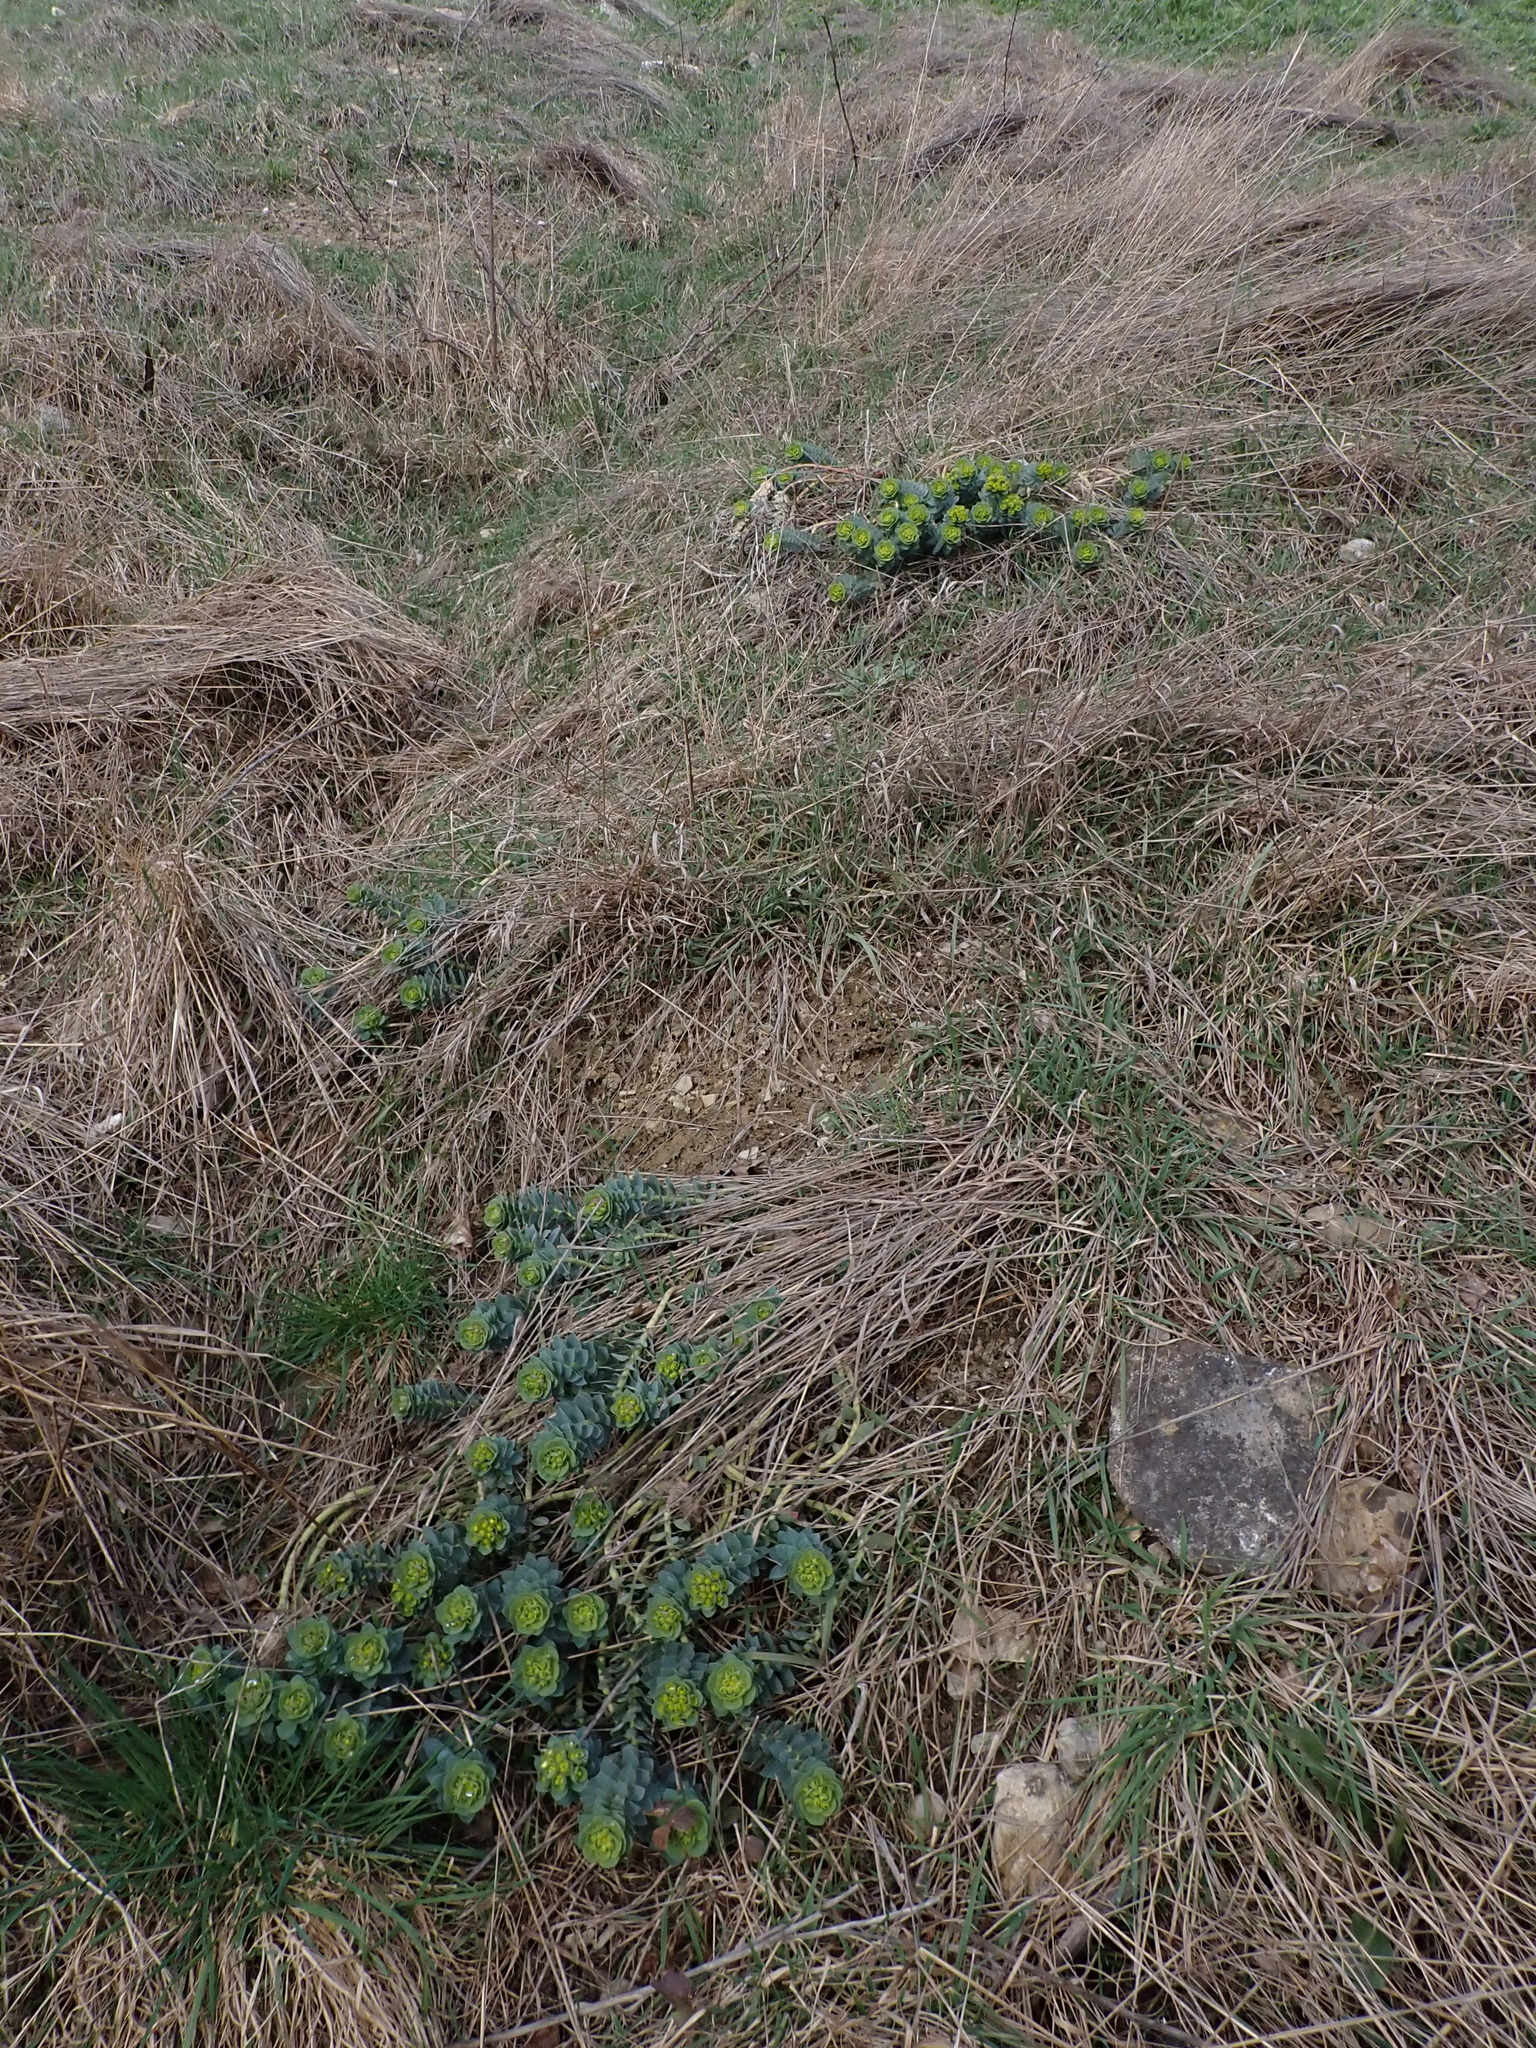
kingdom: Plantae
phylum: Tracheophyta
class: Magnoliopsida
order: Malpighiales
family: Euphorbiaceae
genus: Euphorbia
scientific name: Euphorbia myrsinites
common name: Myrtle spurge
